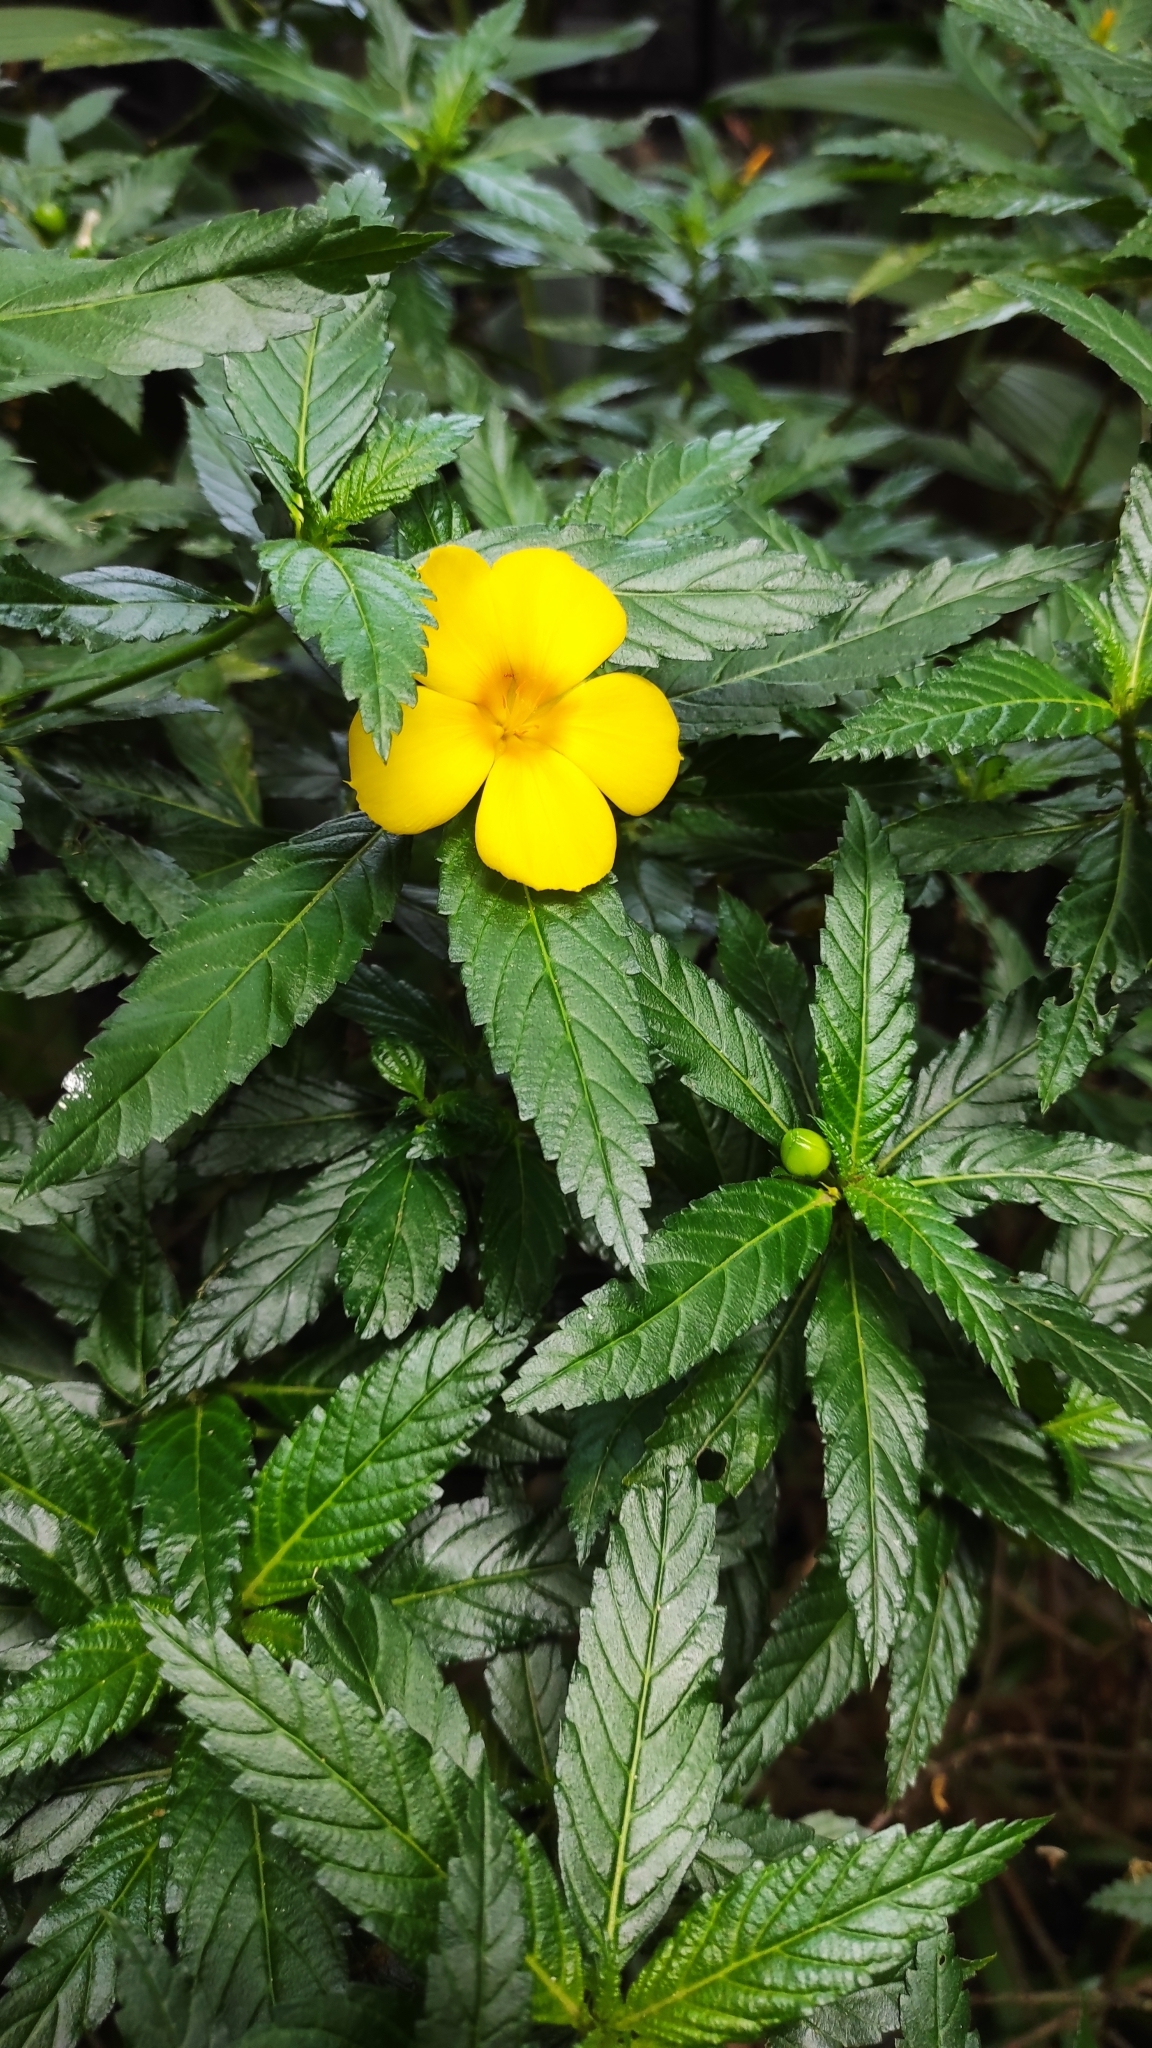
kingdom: Plantae
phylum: Tracheophyta
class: Magnoliopsida
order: Malpighiales
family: Turneraceae
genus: Turnera
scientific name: Turnera ulmifolia
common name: Ramgoat dashalong
